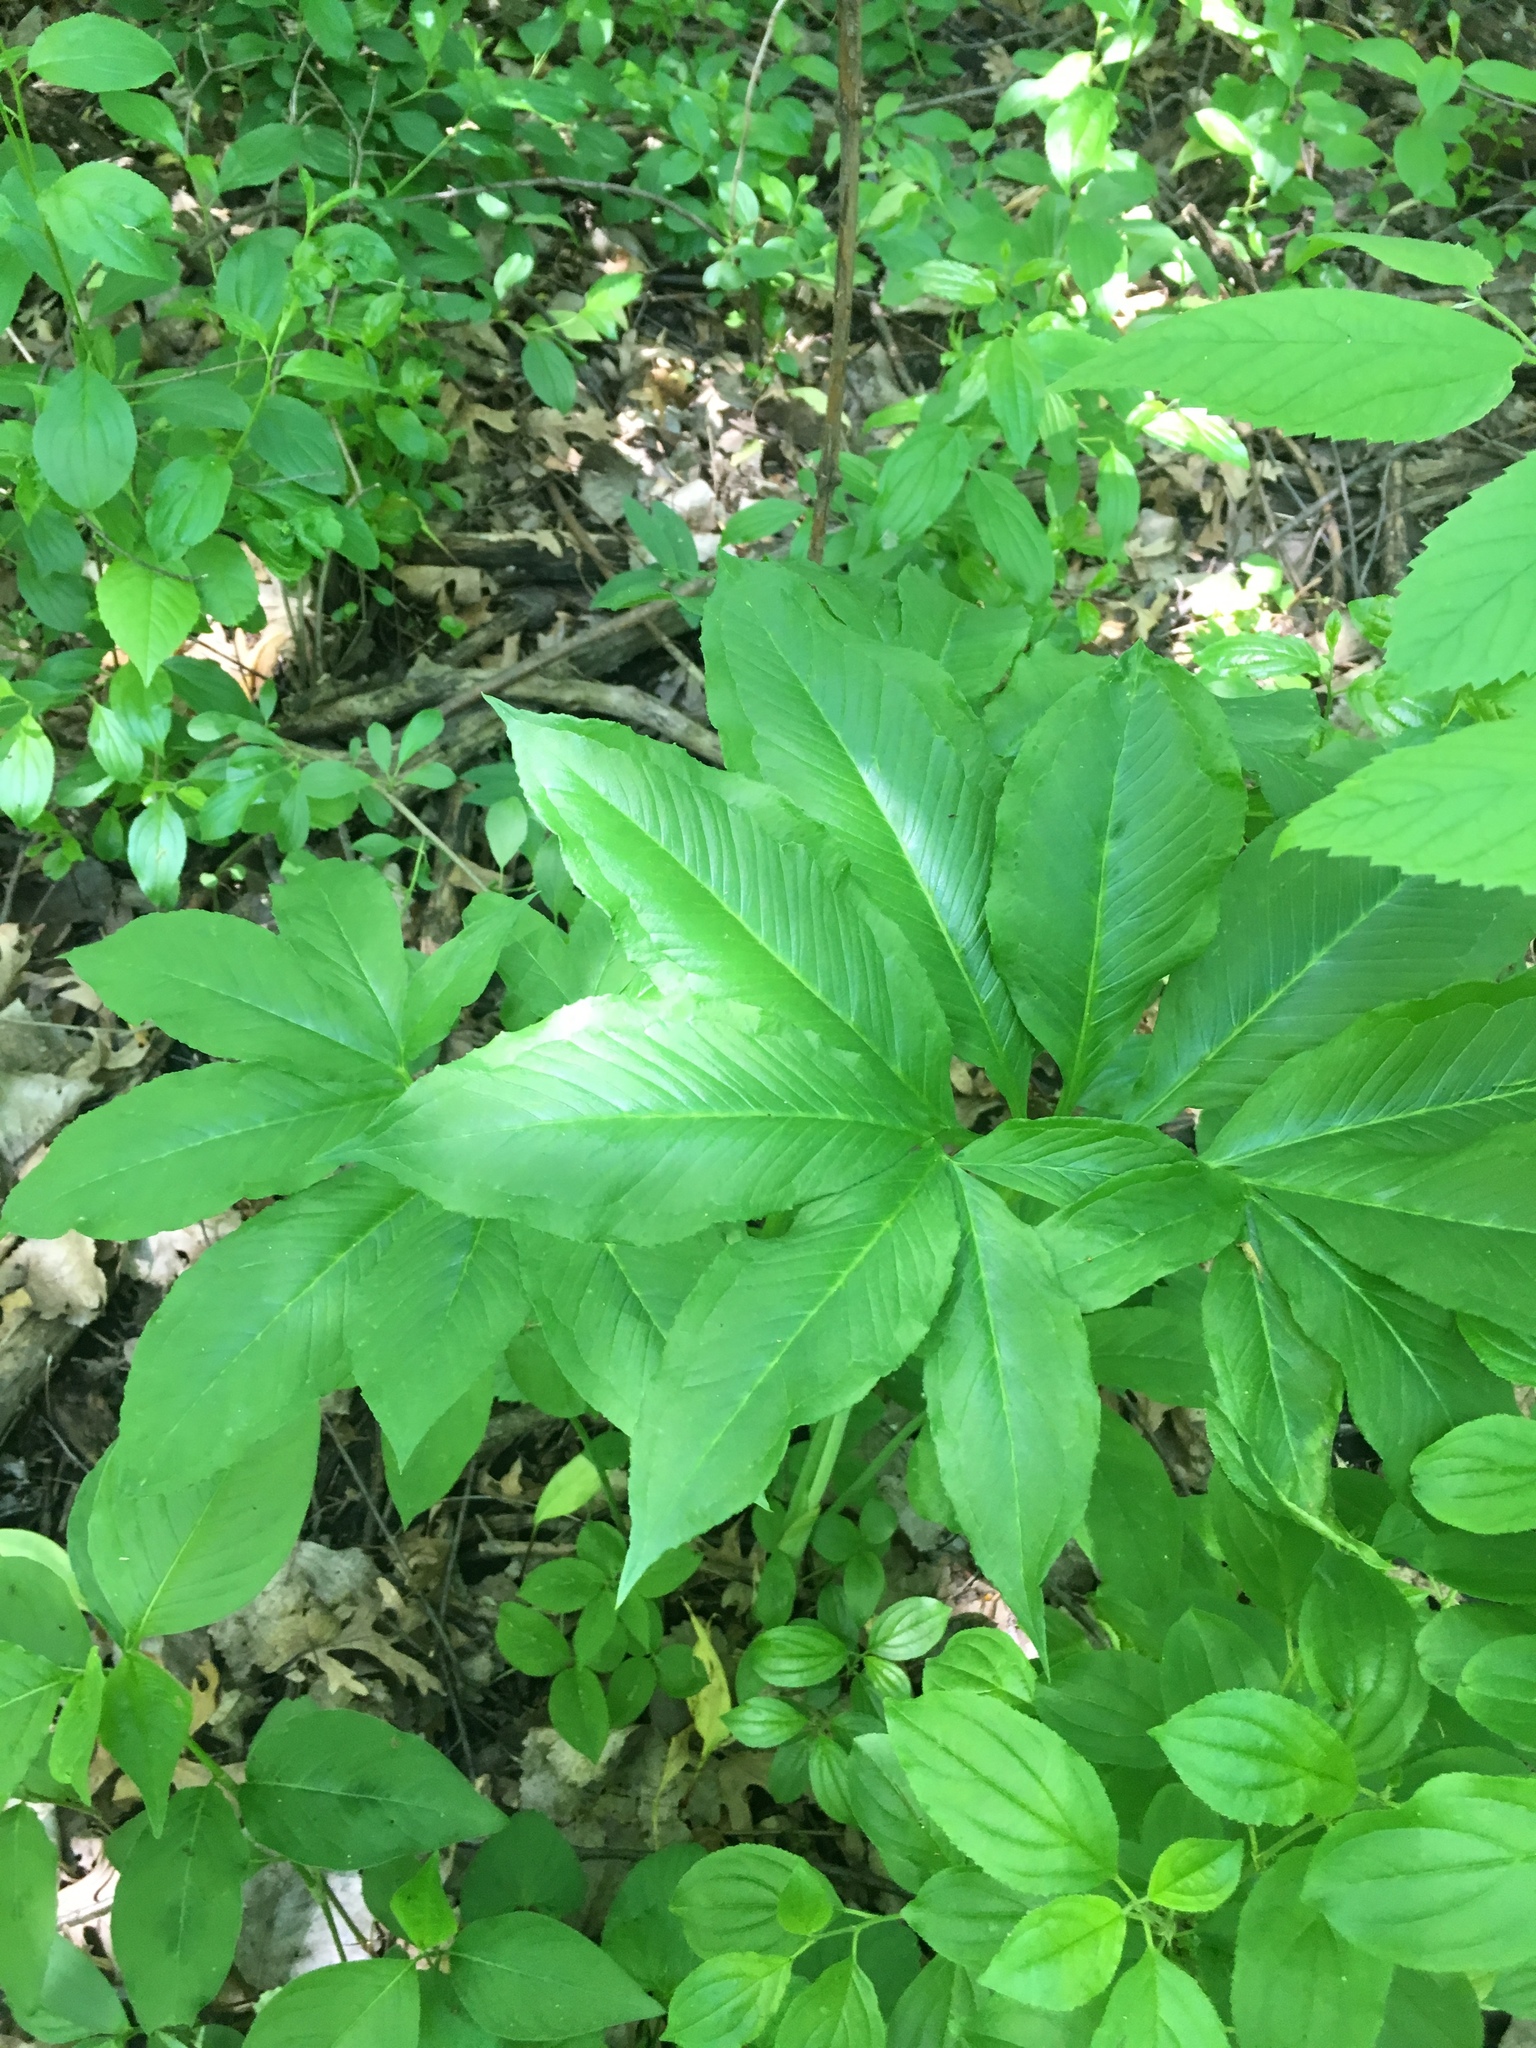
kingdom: Plantae
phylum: Tracheophyta
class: Liliopsida
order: Alismatales
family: Araceae
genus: Arisaema
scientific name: Arisaema dracontium
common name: Dragon-arum
